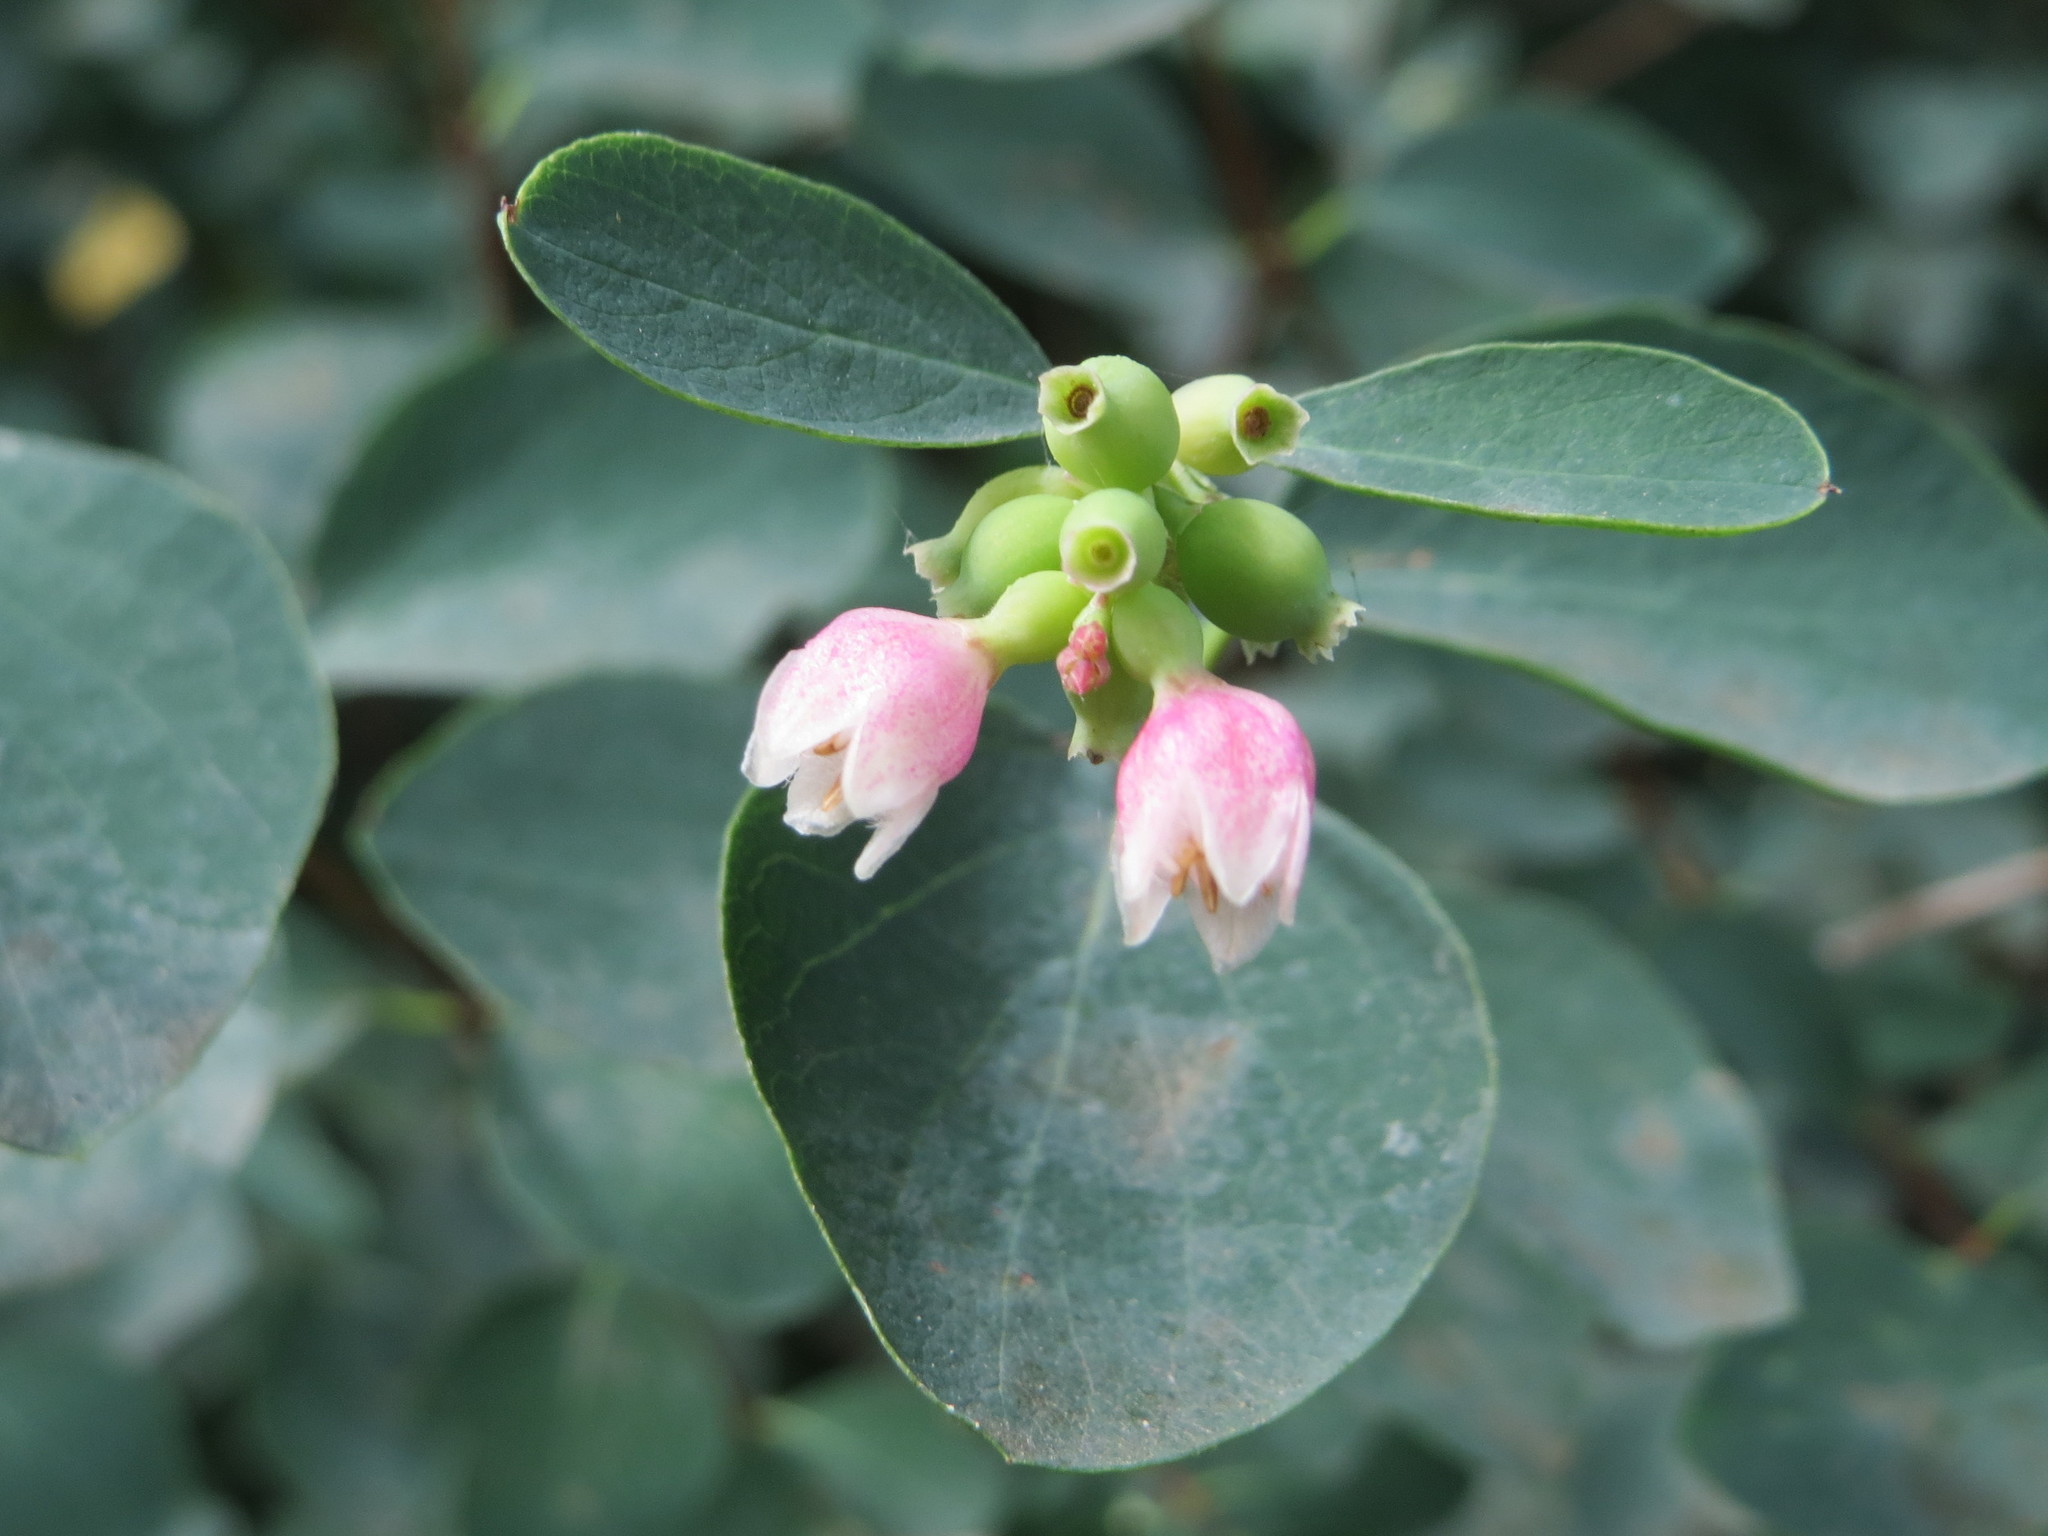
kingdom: Plantae
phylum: Tracheophyta
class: Magnoliopsida
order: Dipsacales
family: Caprifoliaceae
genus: Symphoricarpos
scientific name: Symphoricarpos albus
